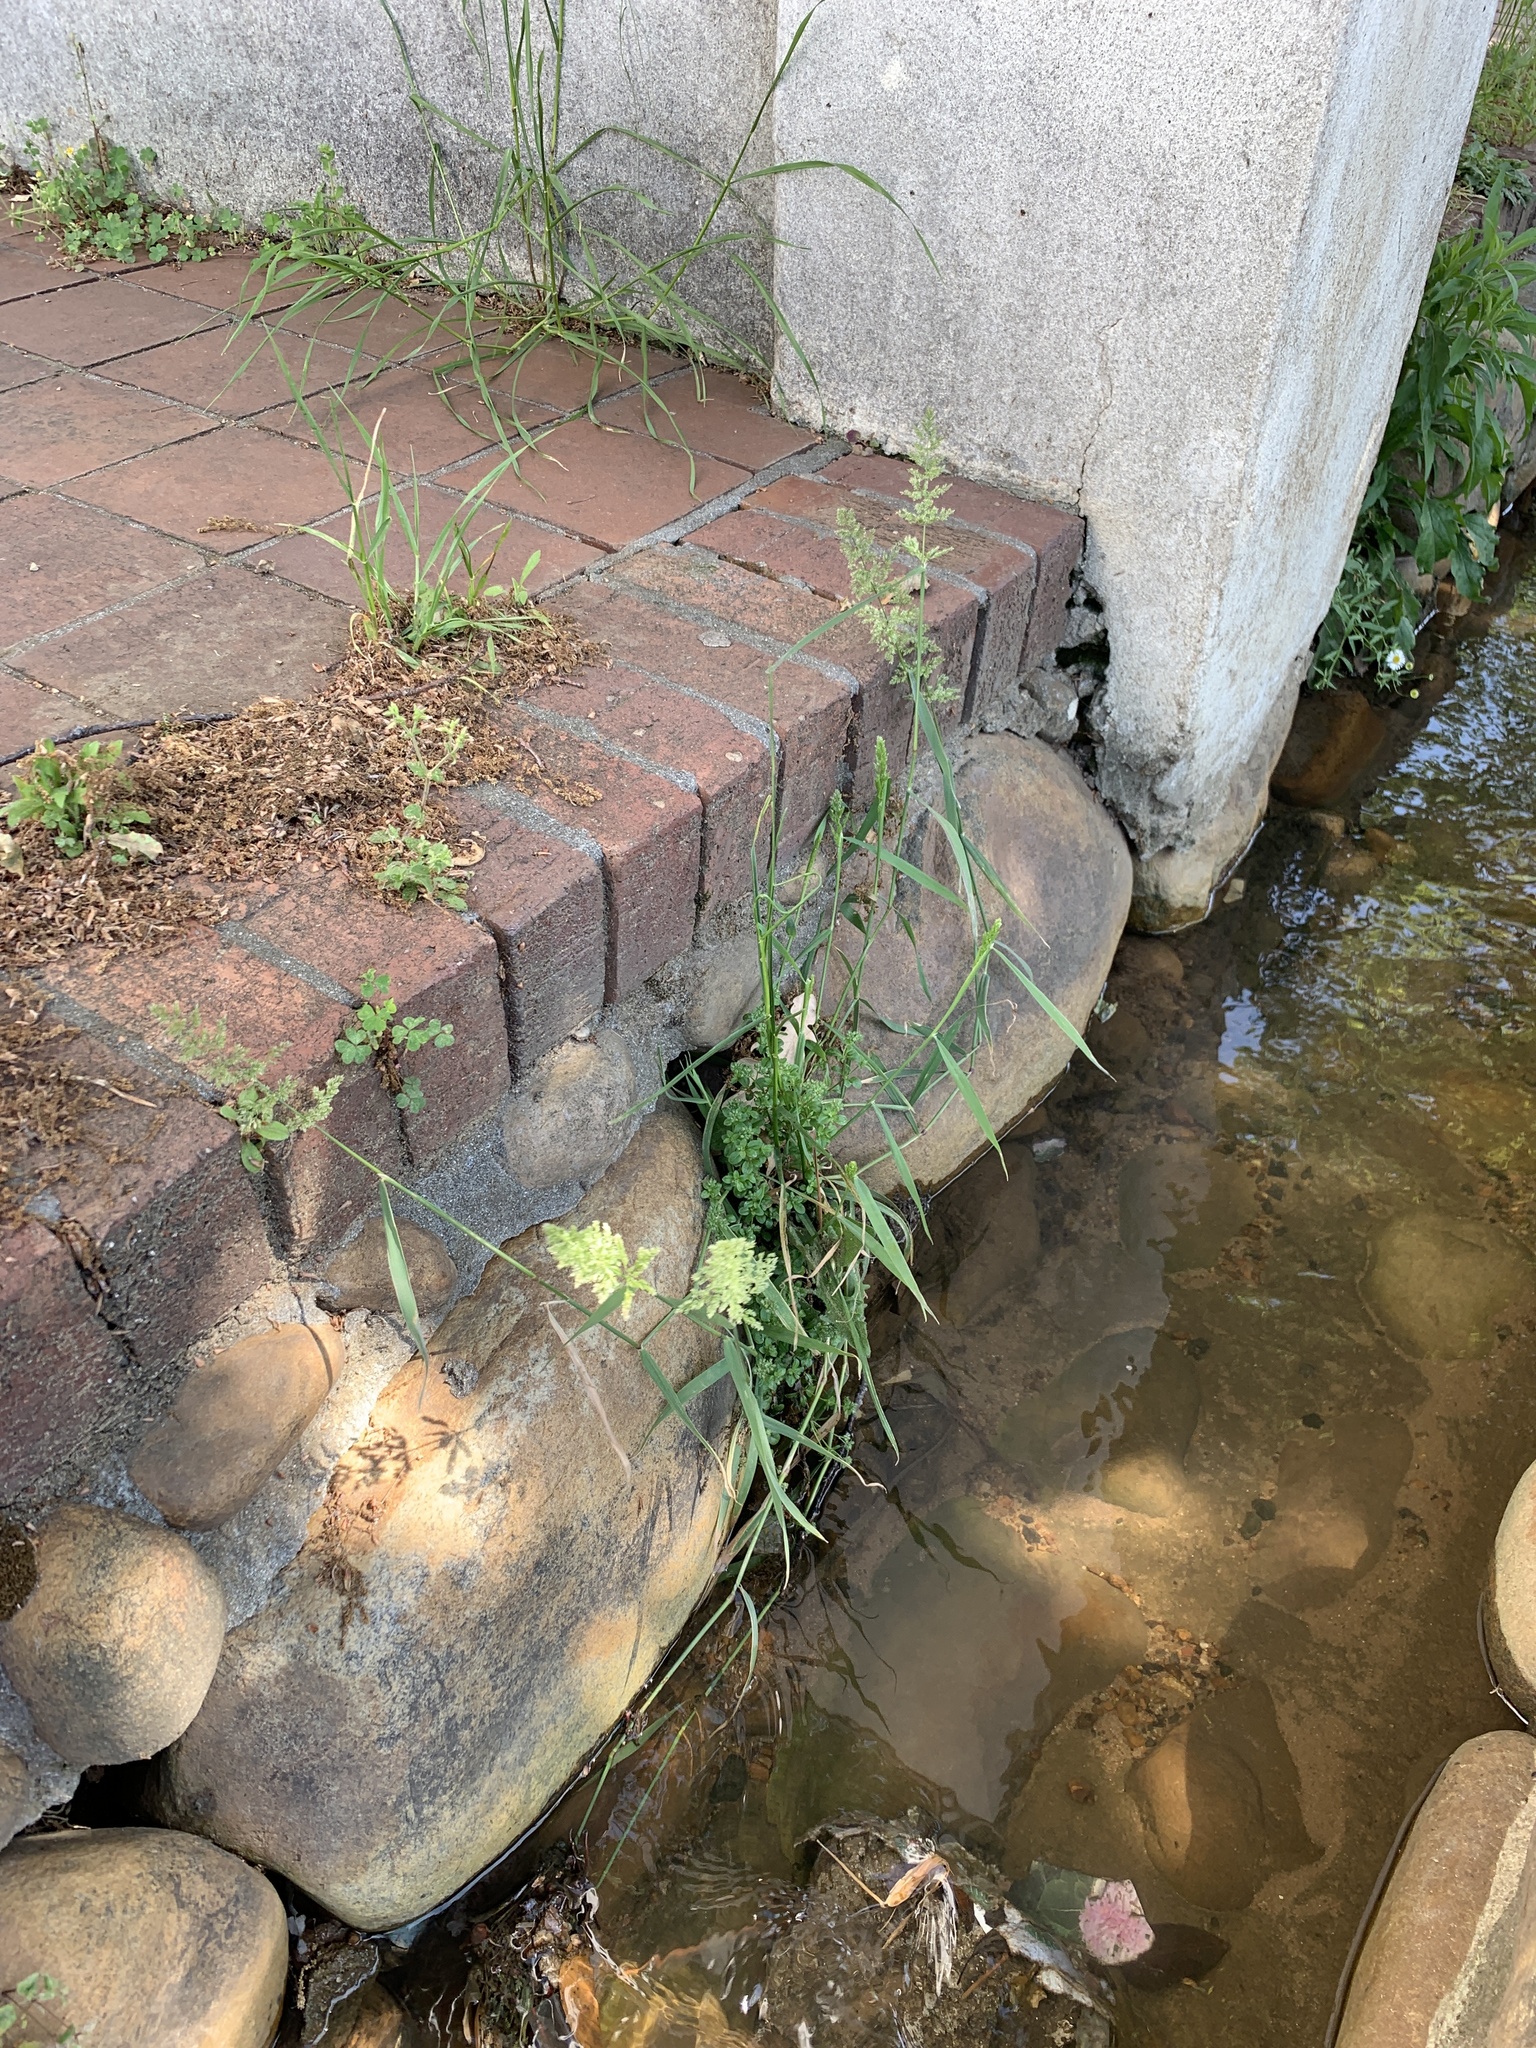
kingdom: Plantae
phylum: Tracheophyta
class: Liliopsida
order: Poales
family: Poaceae
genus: Polypogon
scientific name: Polypogon viridis
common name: Water bent
